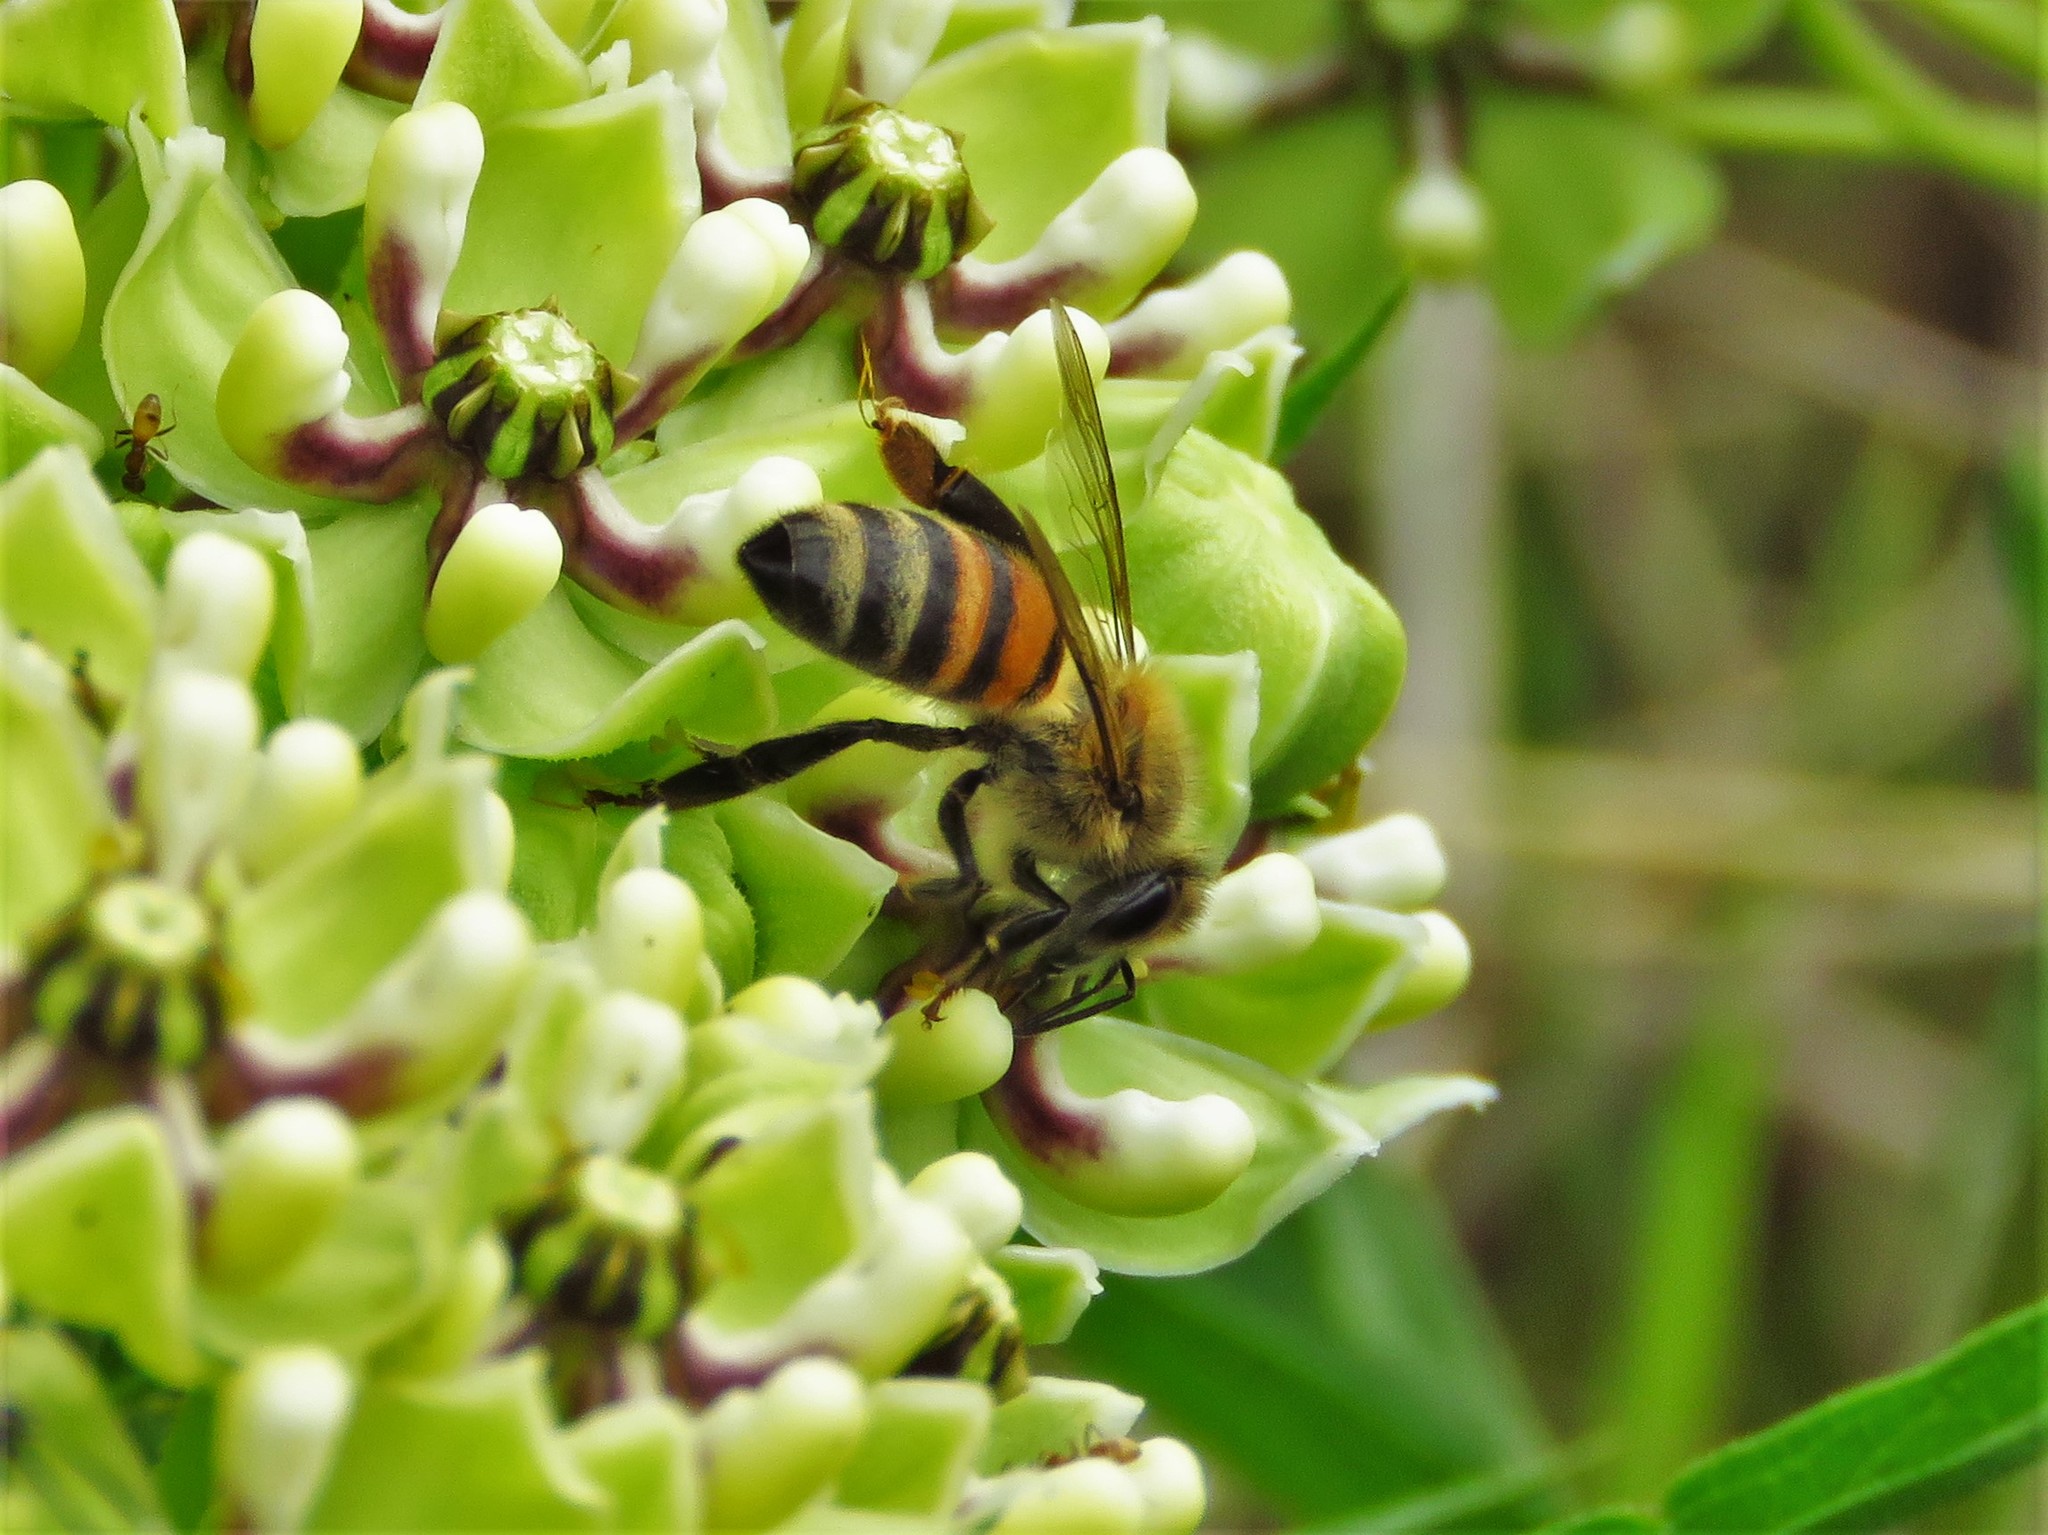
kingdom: Animalia
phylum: Arthropoda
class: Insecta
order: Hymenoptera
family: Apidae
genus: Apis
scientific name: Apis mellifera
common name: Honey bee
